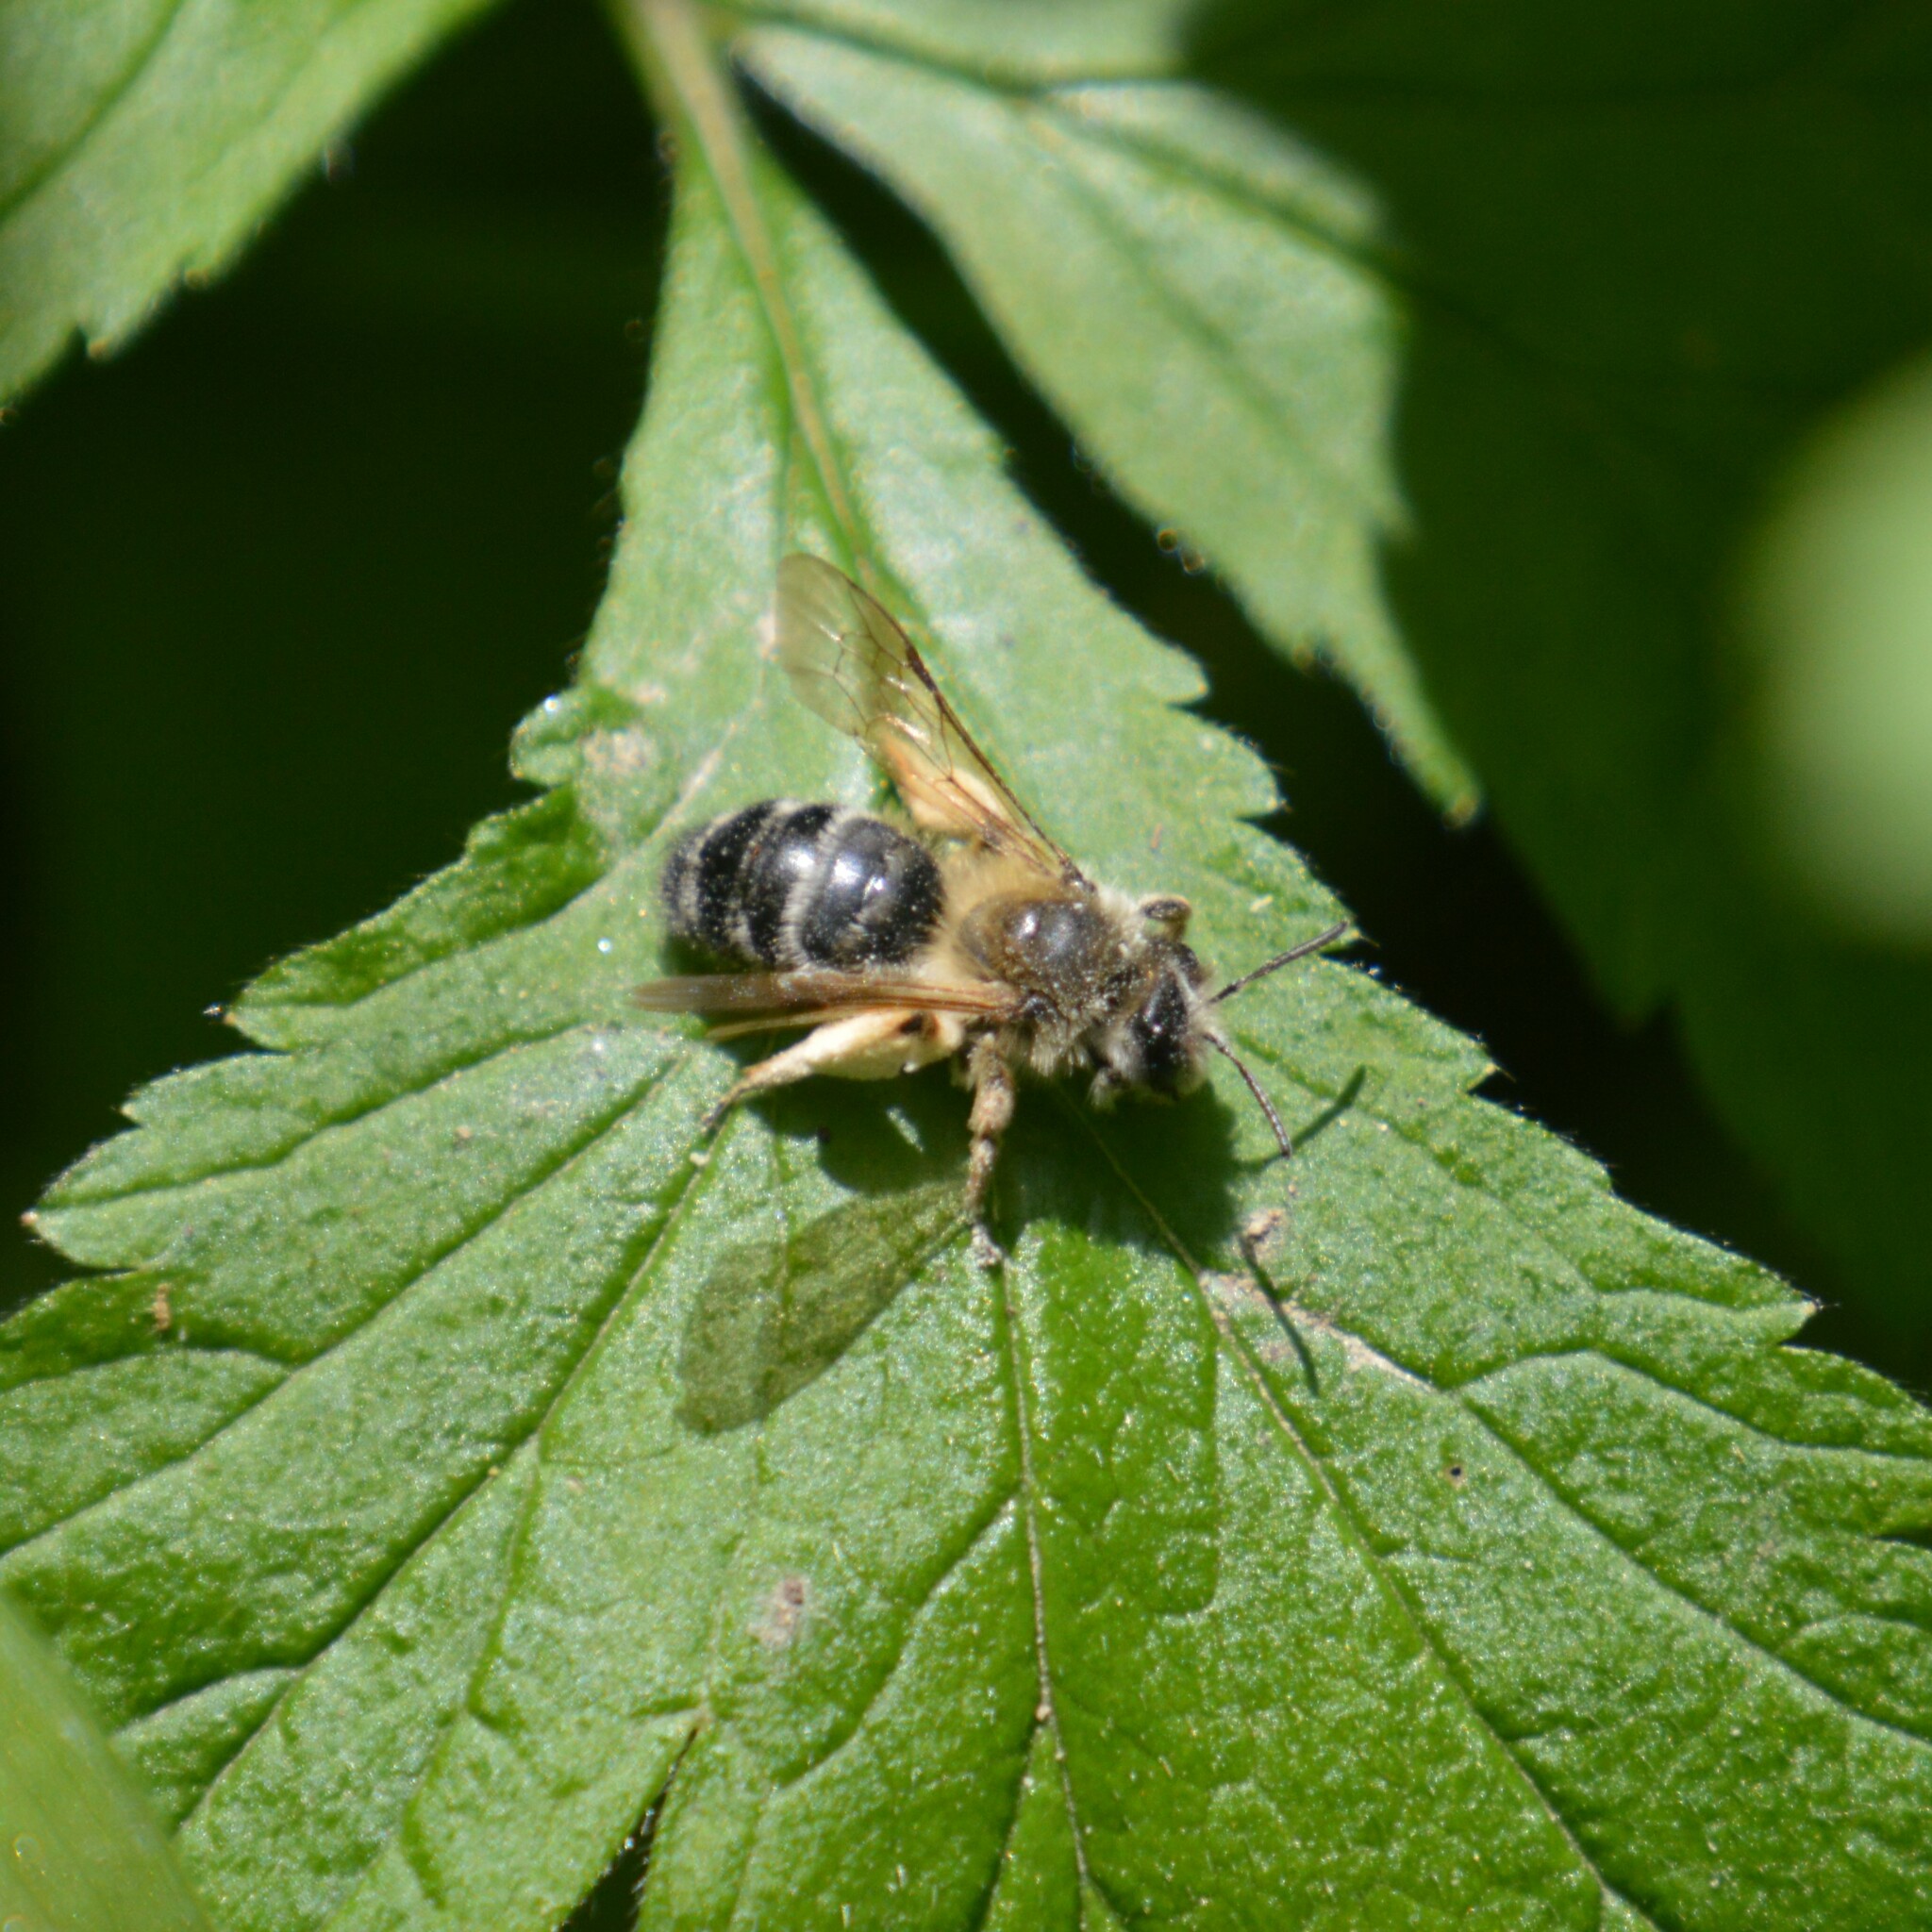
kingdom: Animalia
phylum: Arthropoda
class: Insecta
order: Hymenoptera
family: Andrenidae
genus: Andrena
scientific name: Andrena
